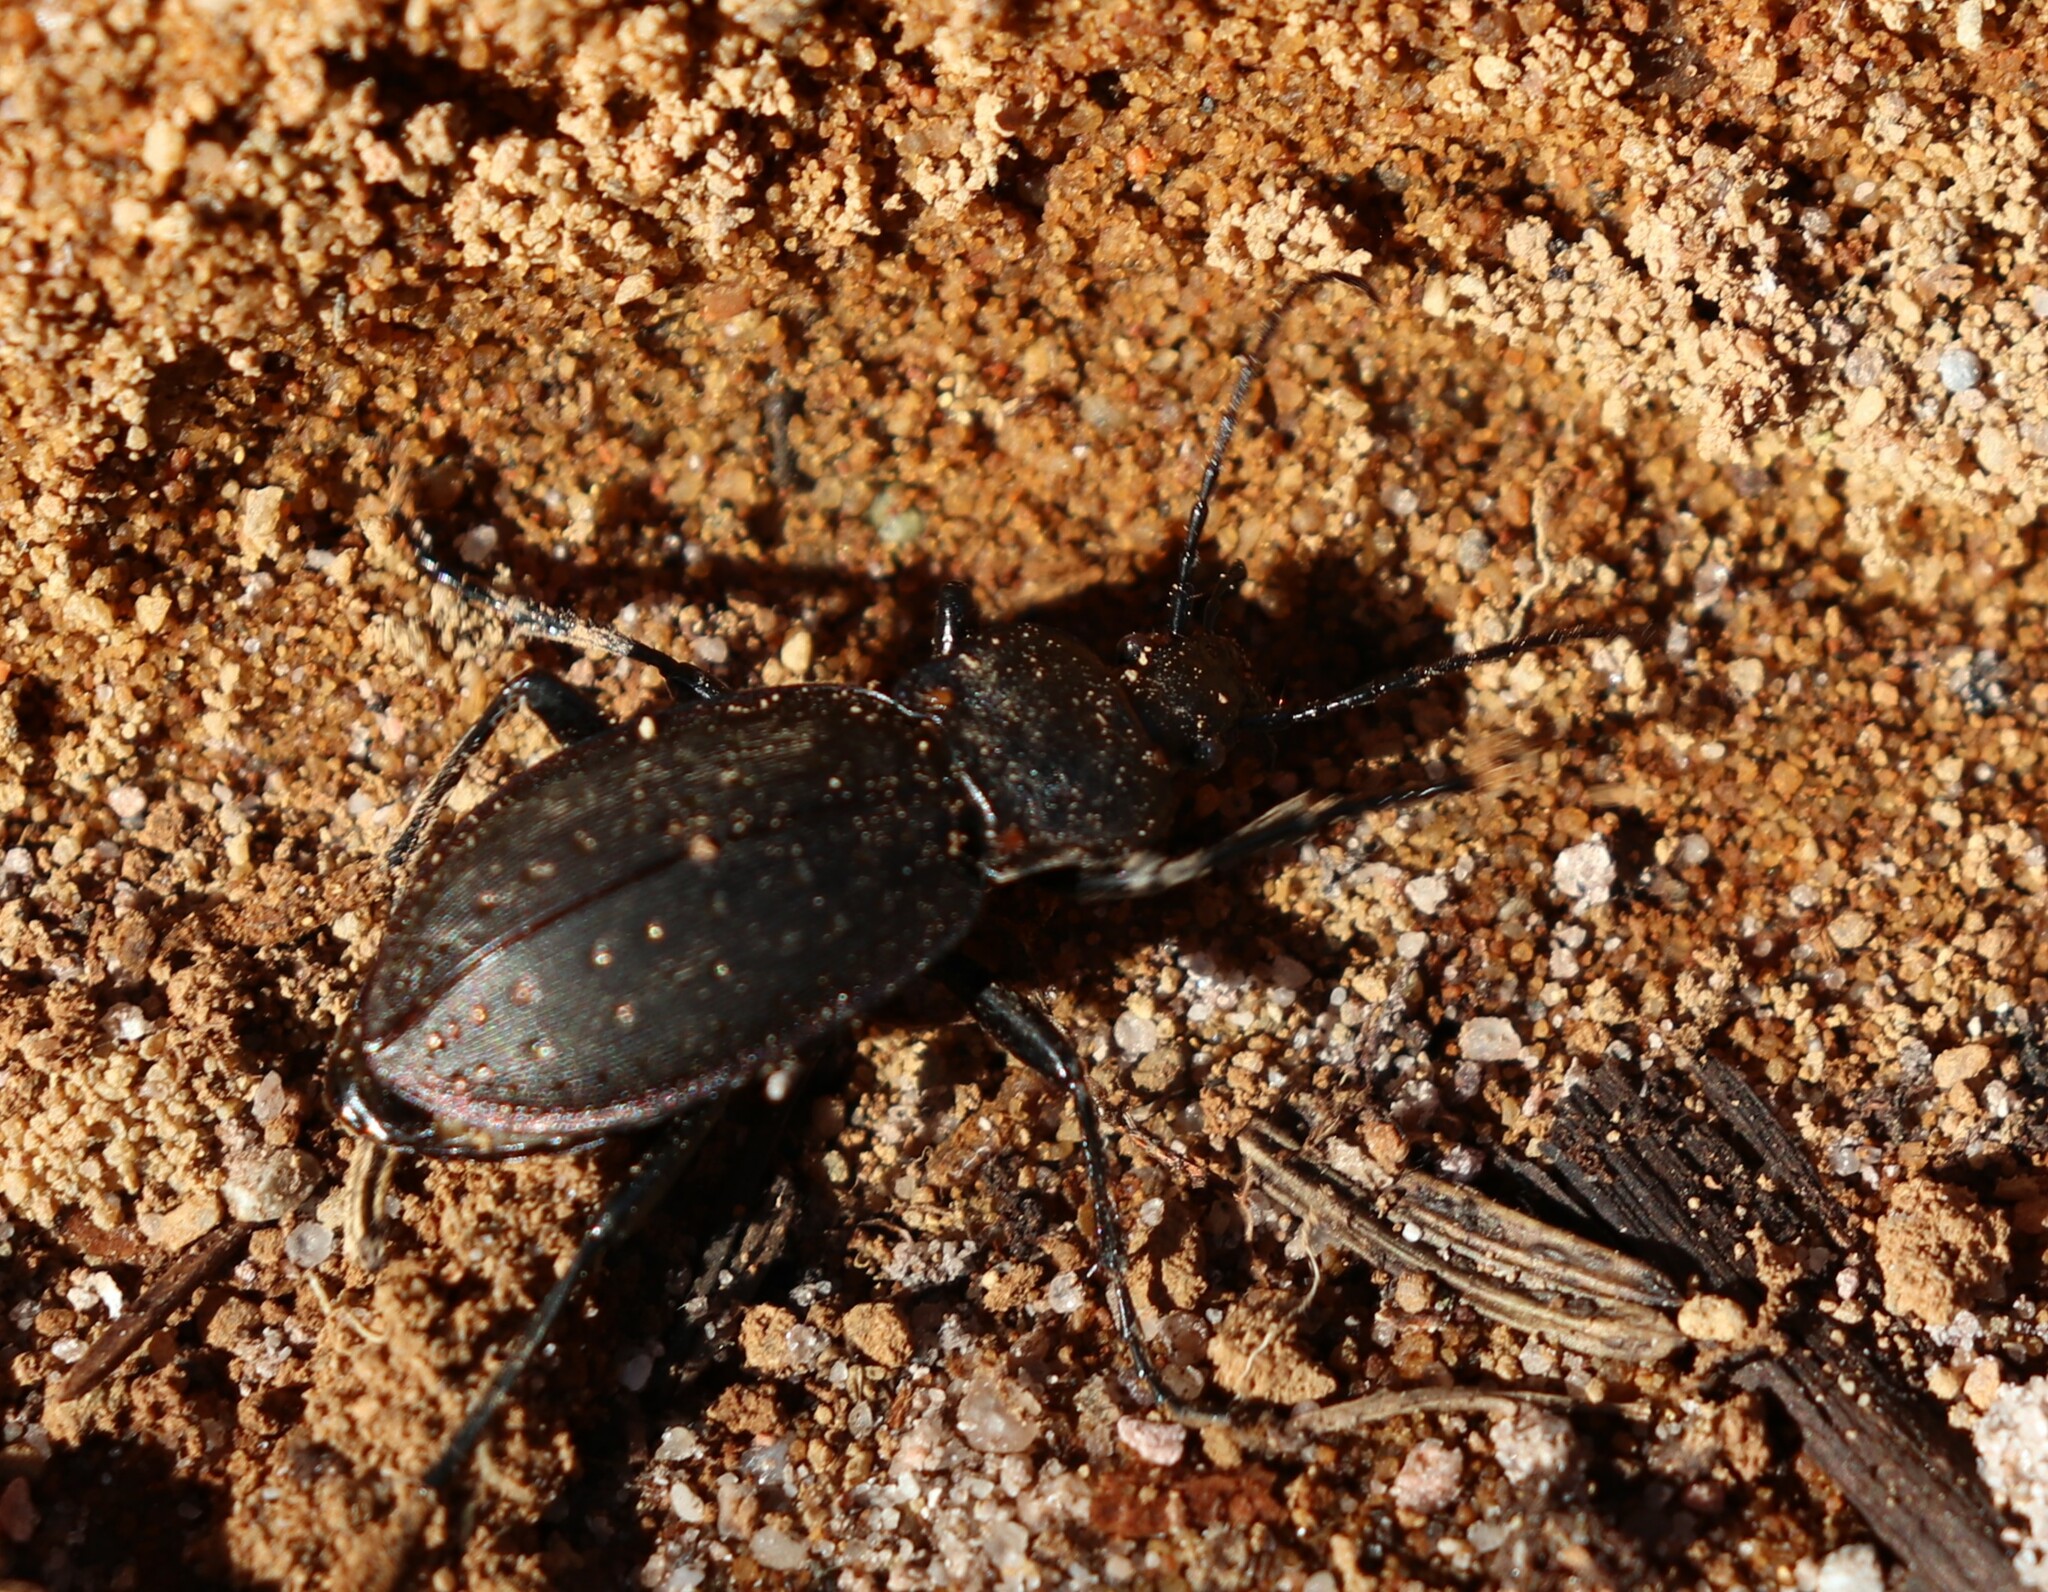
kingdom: Animalia
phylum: Arthropoda
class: Insecta
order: Coleoptera
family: Carabidae
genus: Carabus
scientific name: Carabus hortensis
